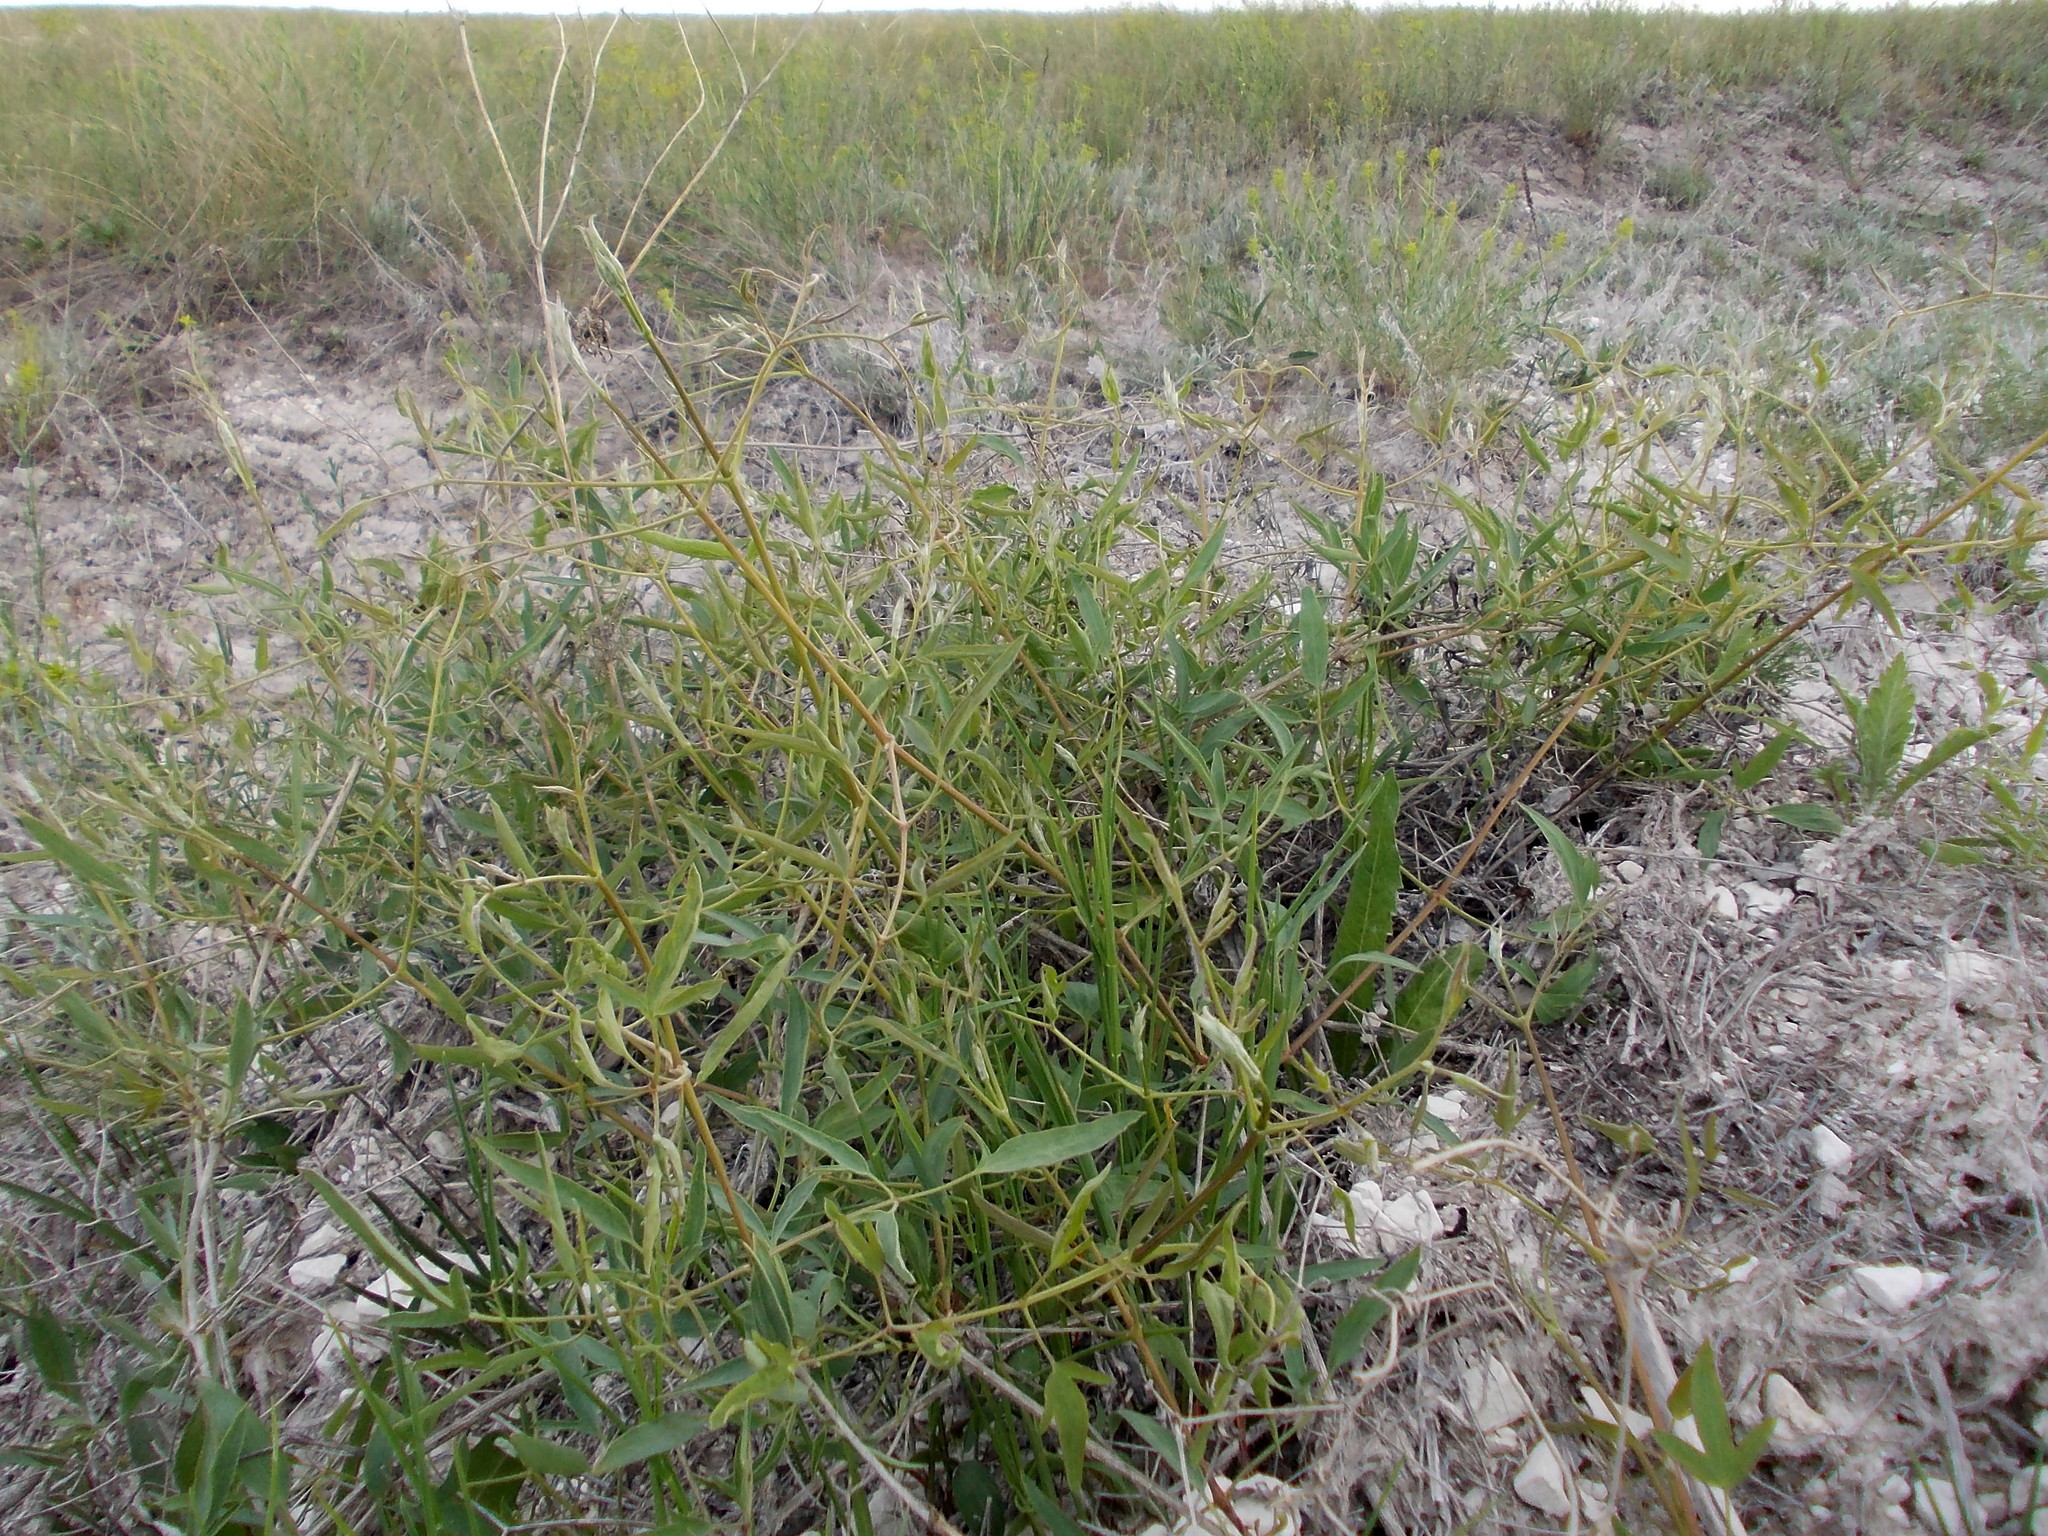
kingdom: Plantae
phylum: Tracheophyta
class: Magnoliopsida
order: Ranunculales
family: Ranunculaceae
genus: Clematis
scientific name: Clematis orientalis
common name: Oriental virgin's-bower
